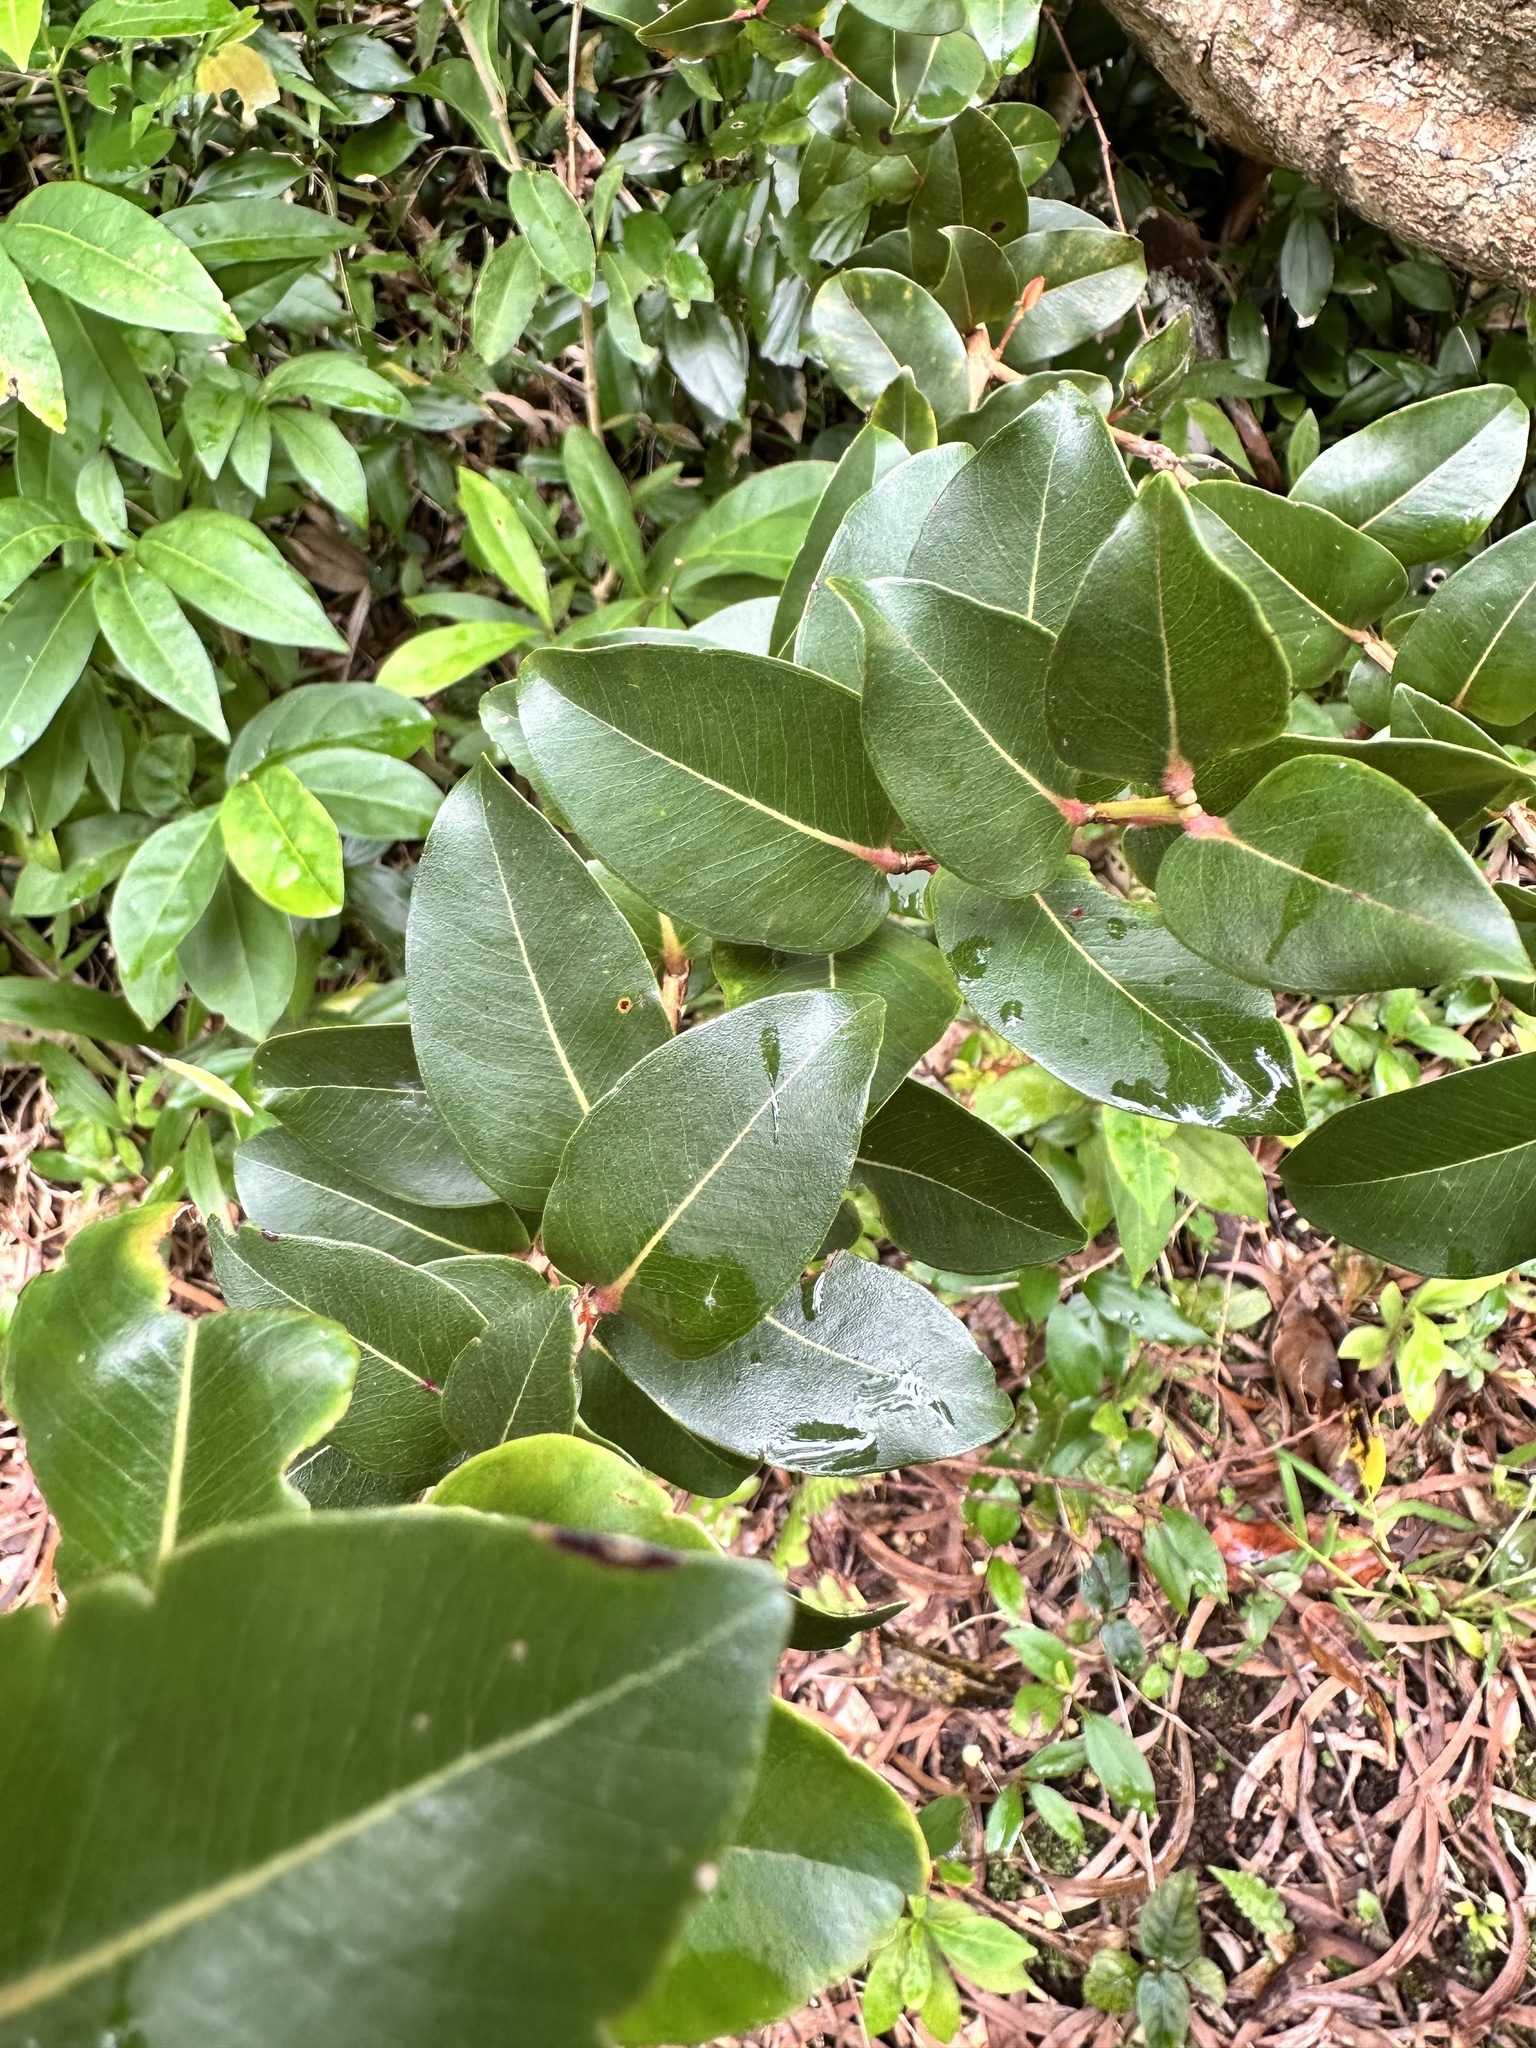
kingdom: Plantae
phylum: Tracheophyta
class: Magnoliopsida
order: Myrtales
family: Myrtaceae
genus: Metrosideros
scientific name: Metrosideros polymorpha
